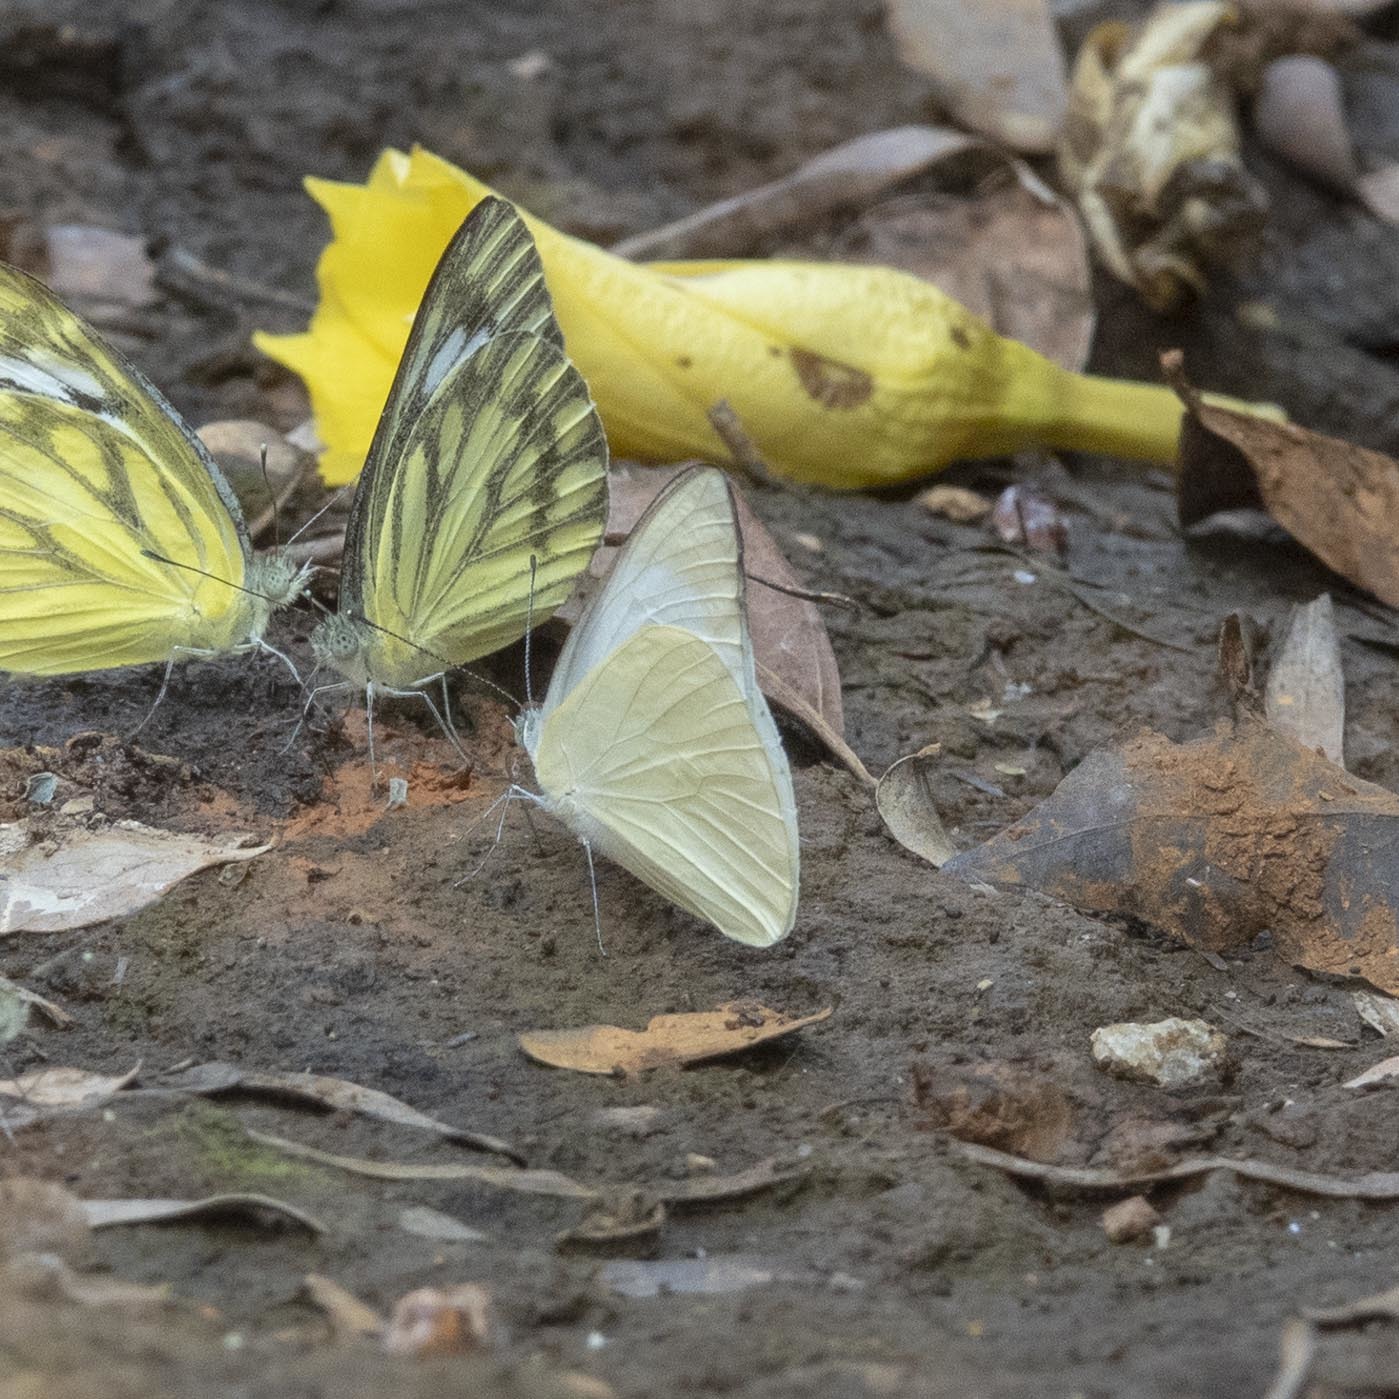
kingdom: Animalia
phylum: Arthropoda
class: Insecta
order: Lepidoptera
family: Pieridae
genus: Appias
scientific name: Appias albina
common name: Common albatross
